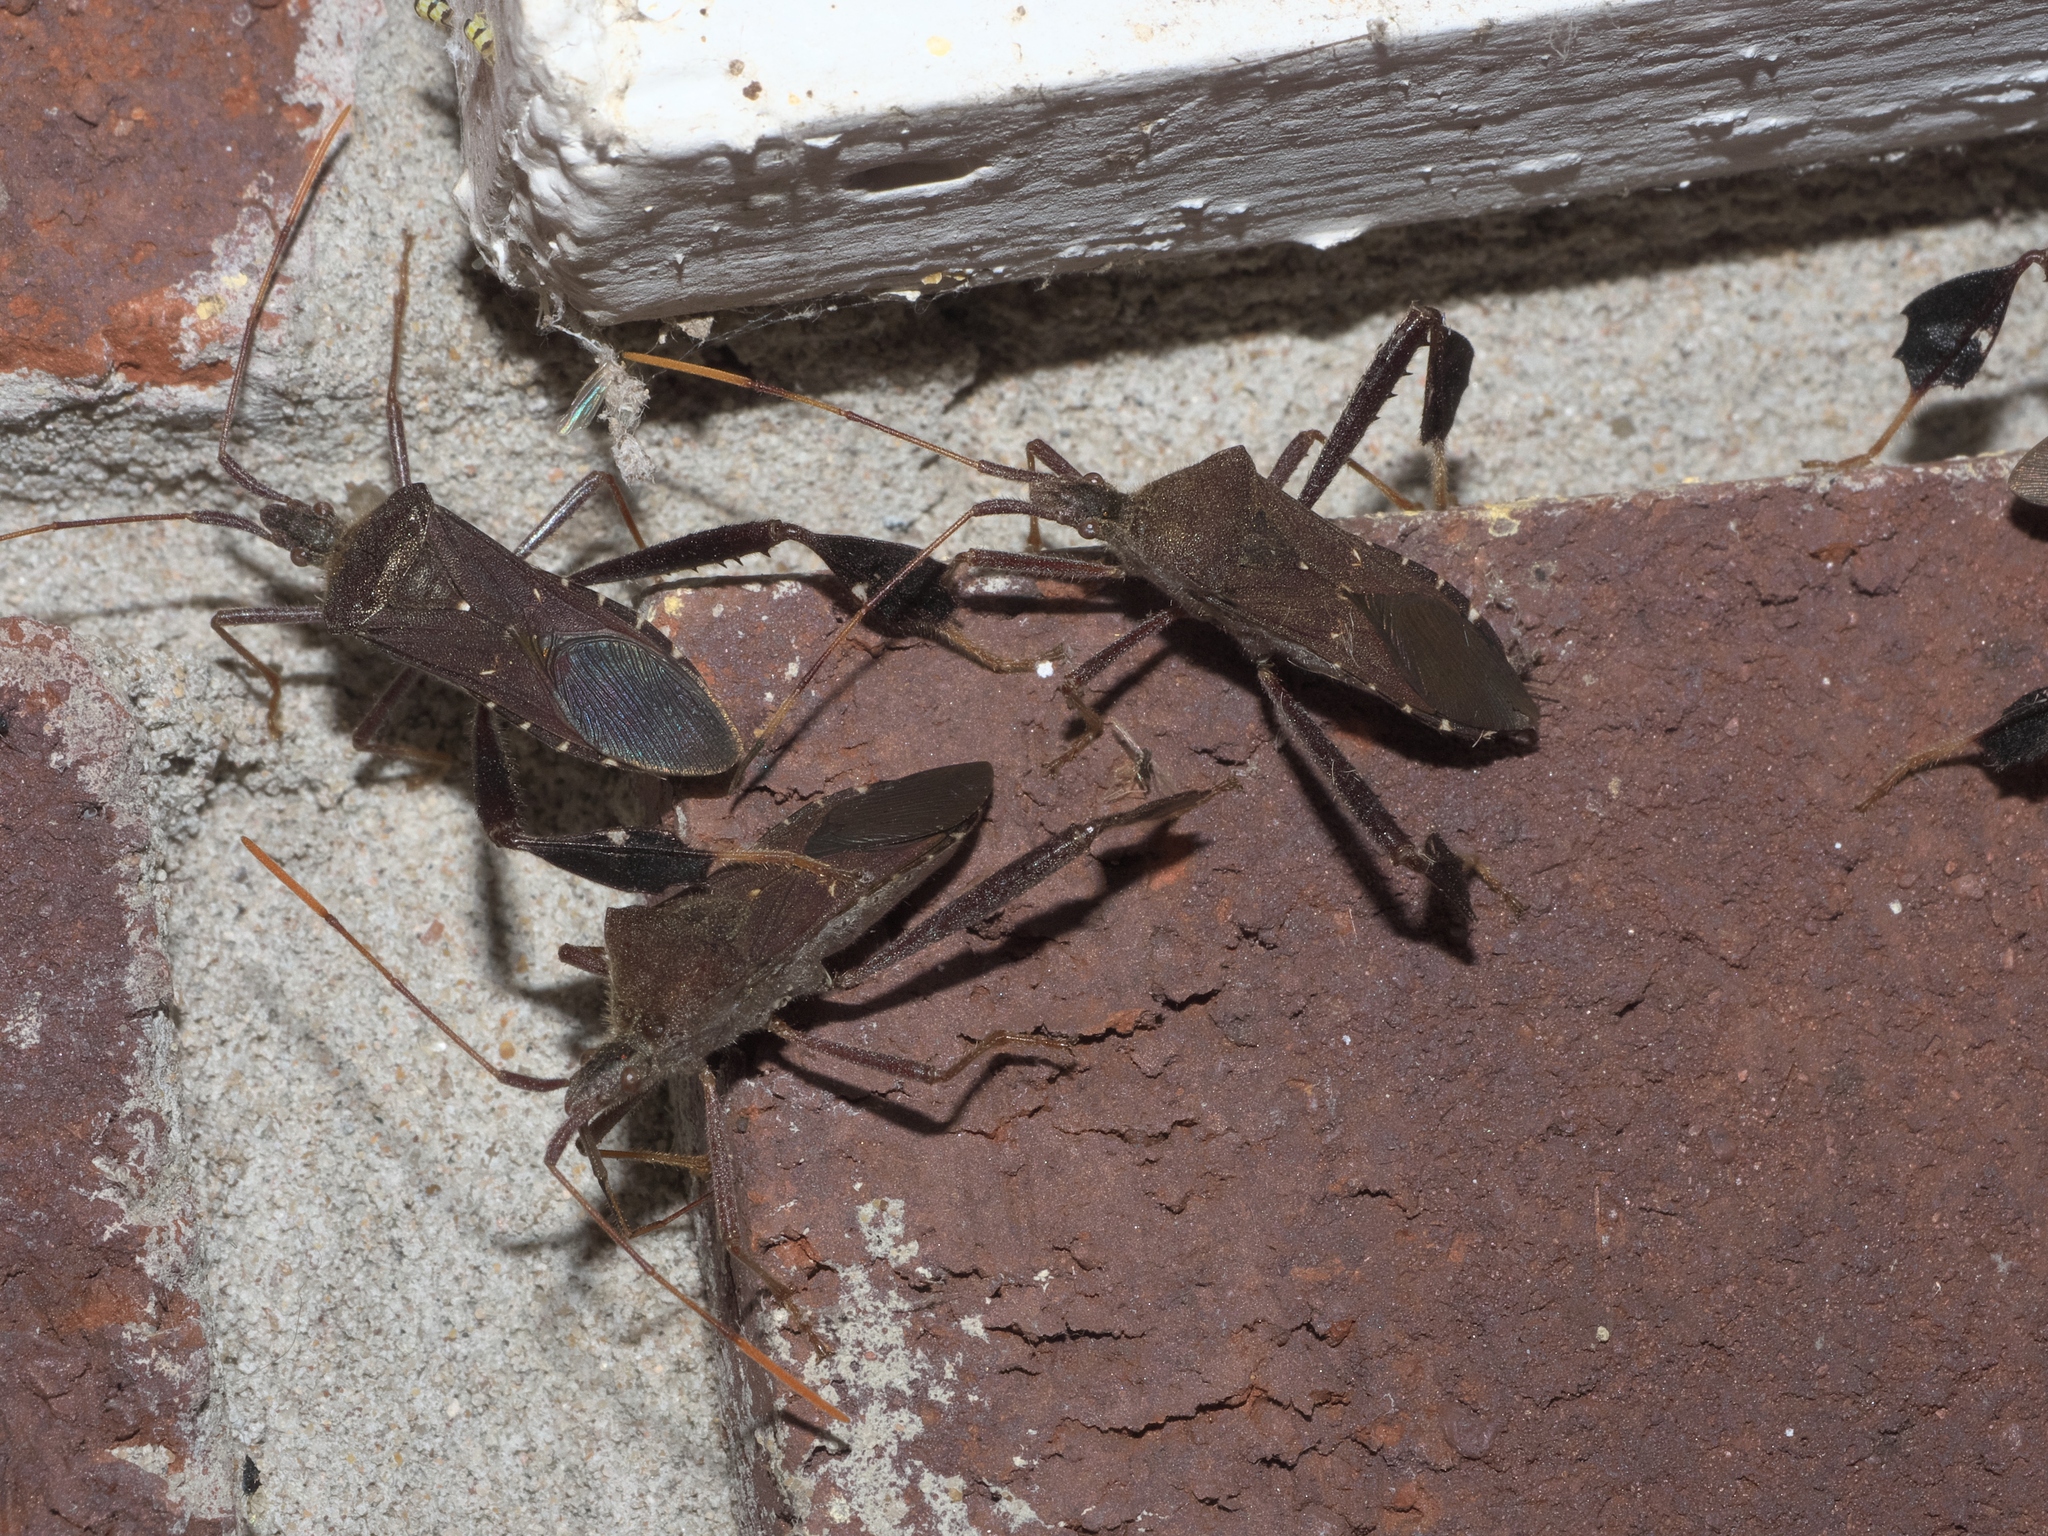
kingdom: Animalia
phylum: Arthropoda
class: Insecta
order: Hemiptera
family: Coreidae
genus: Leptoglossus
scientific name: Leptoglossus oppositus
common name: Northern leaf-footed bug
